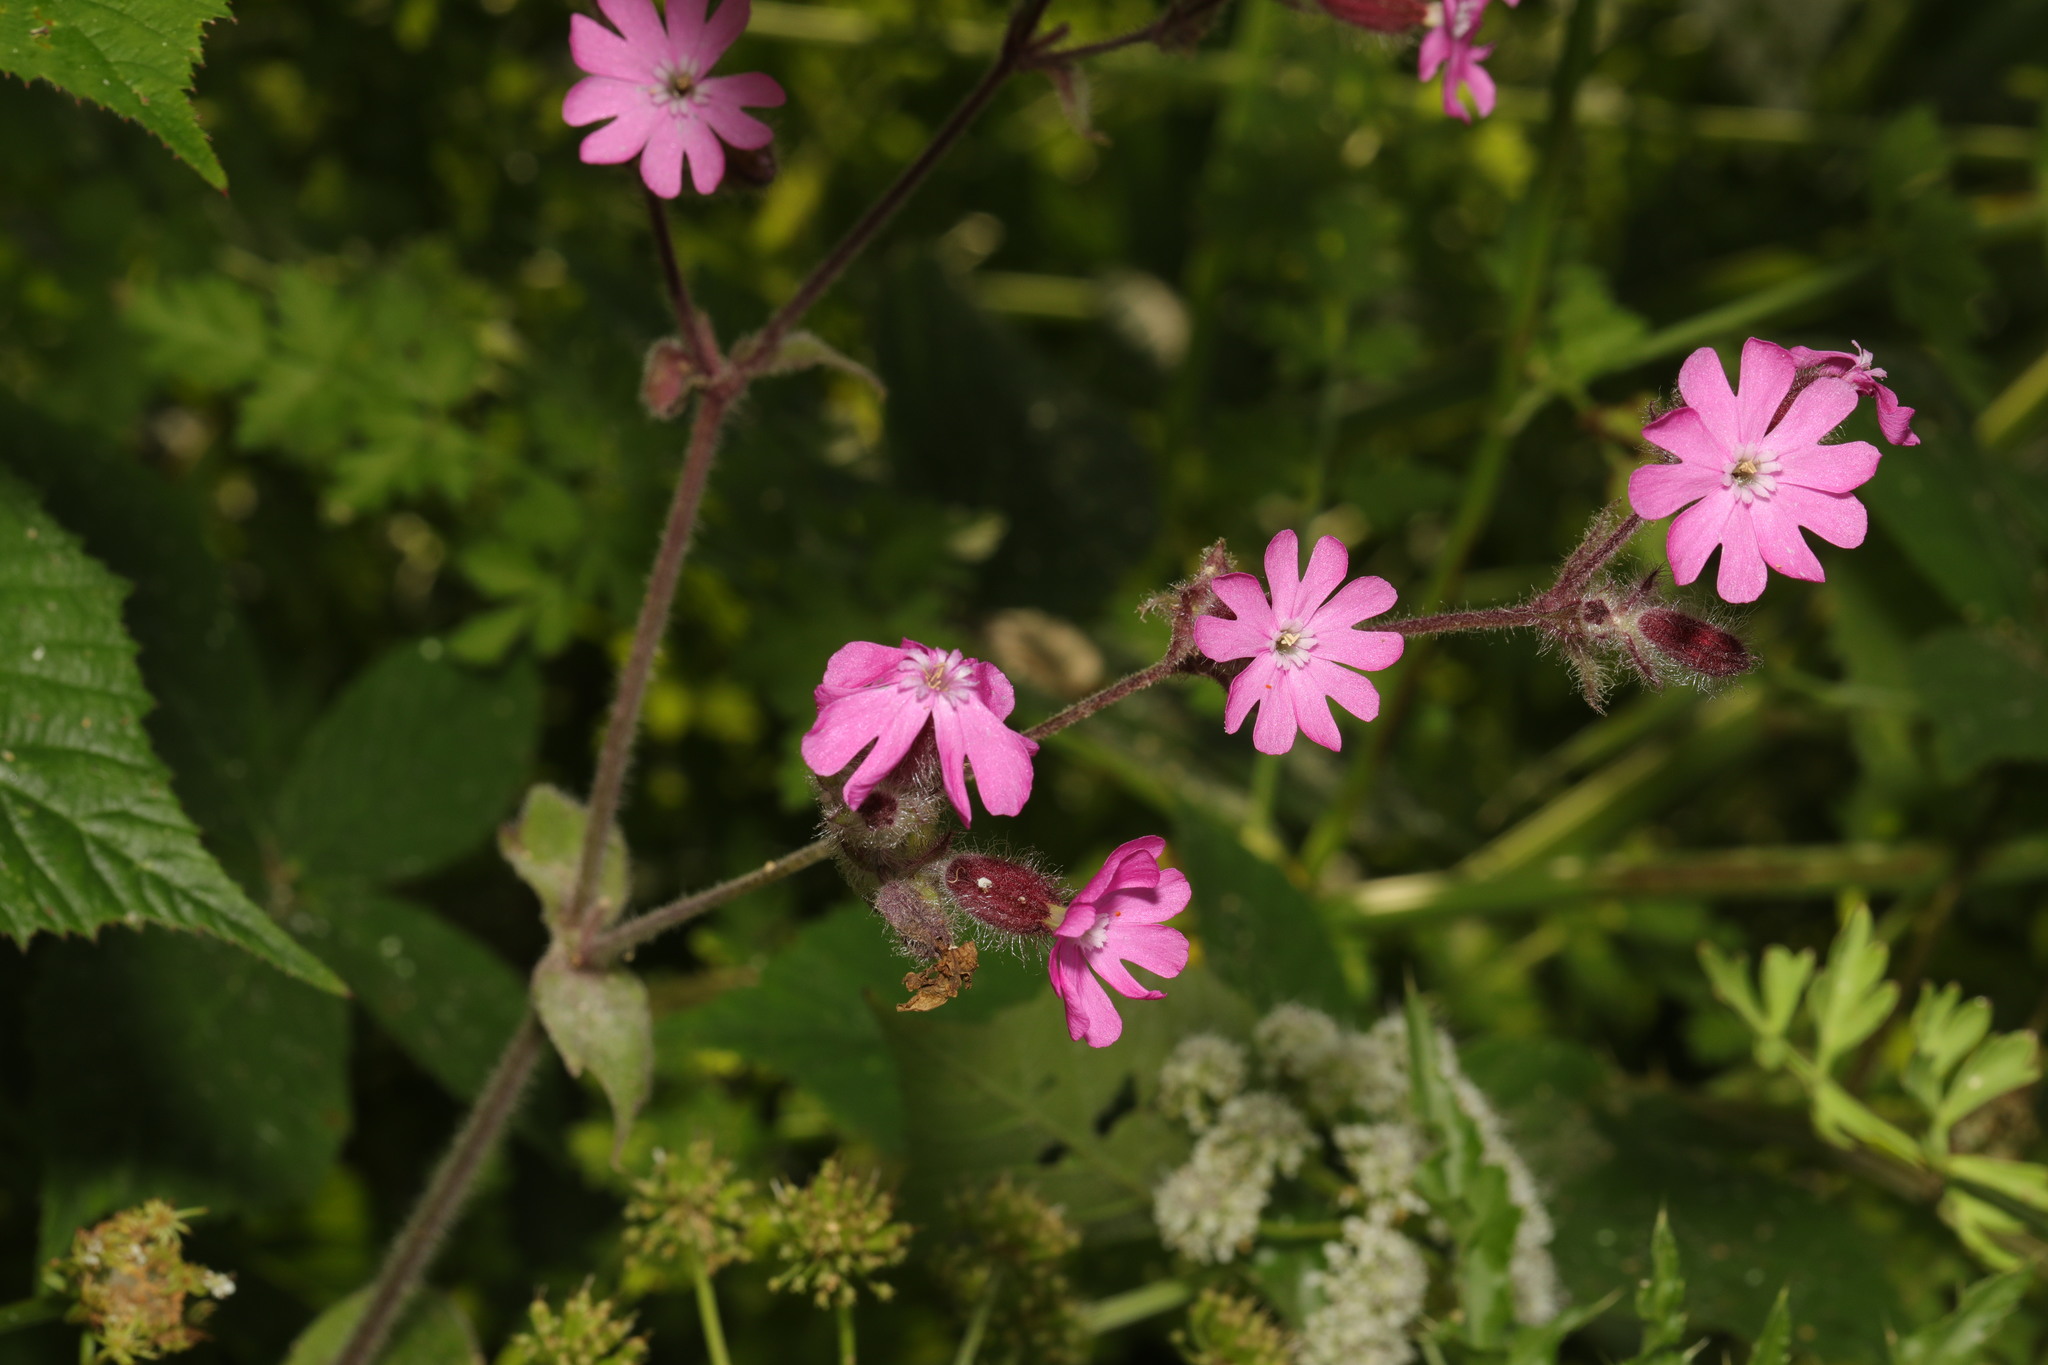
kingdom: Plantae
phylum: Tracheophyta
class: Magnoliopsida
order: Caryophyllales
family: Caryophyllaceae
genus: Silene
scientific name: Silene dioica
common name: Red campion
